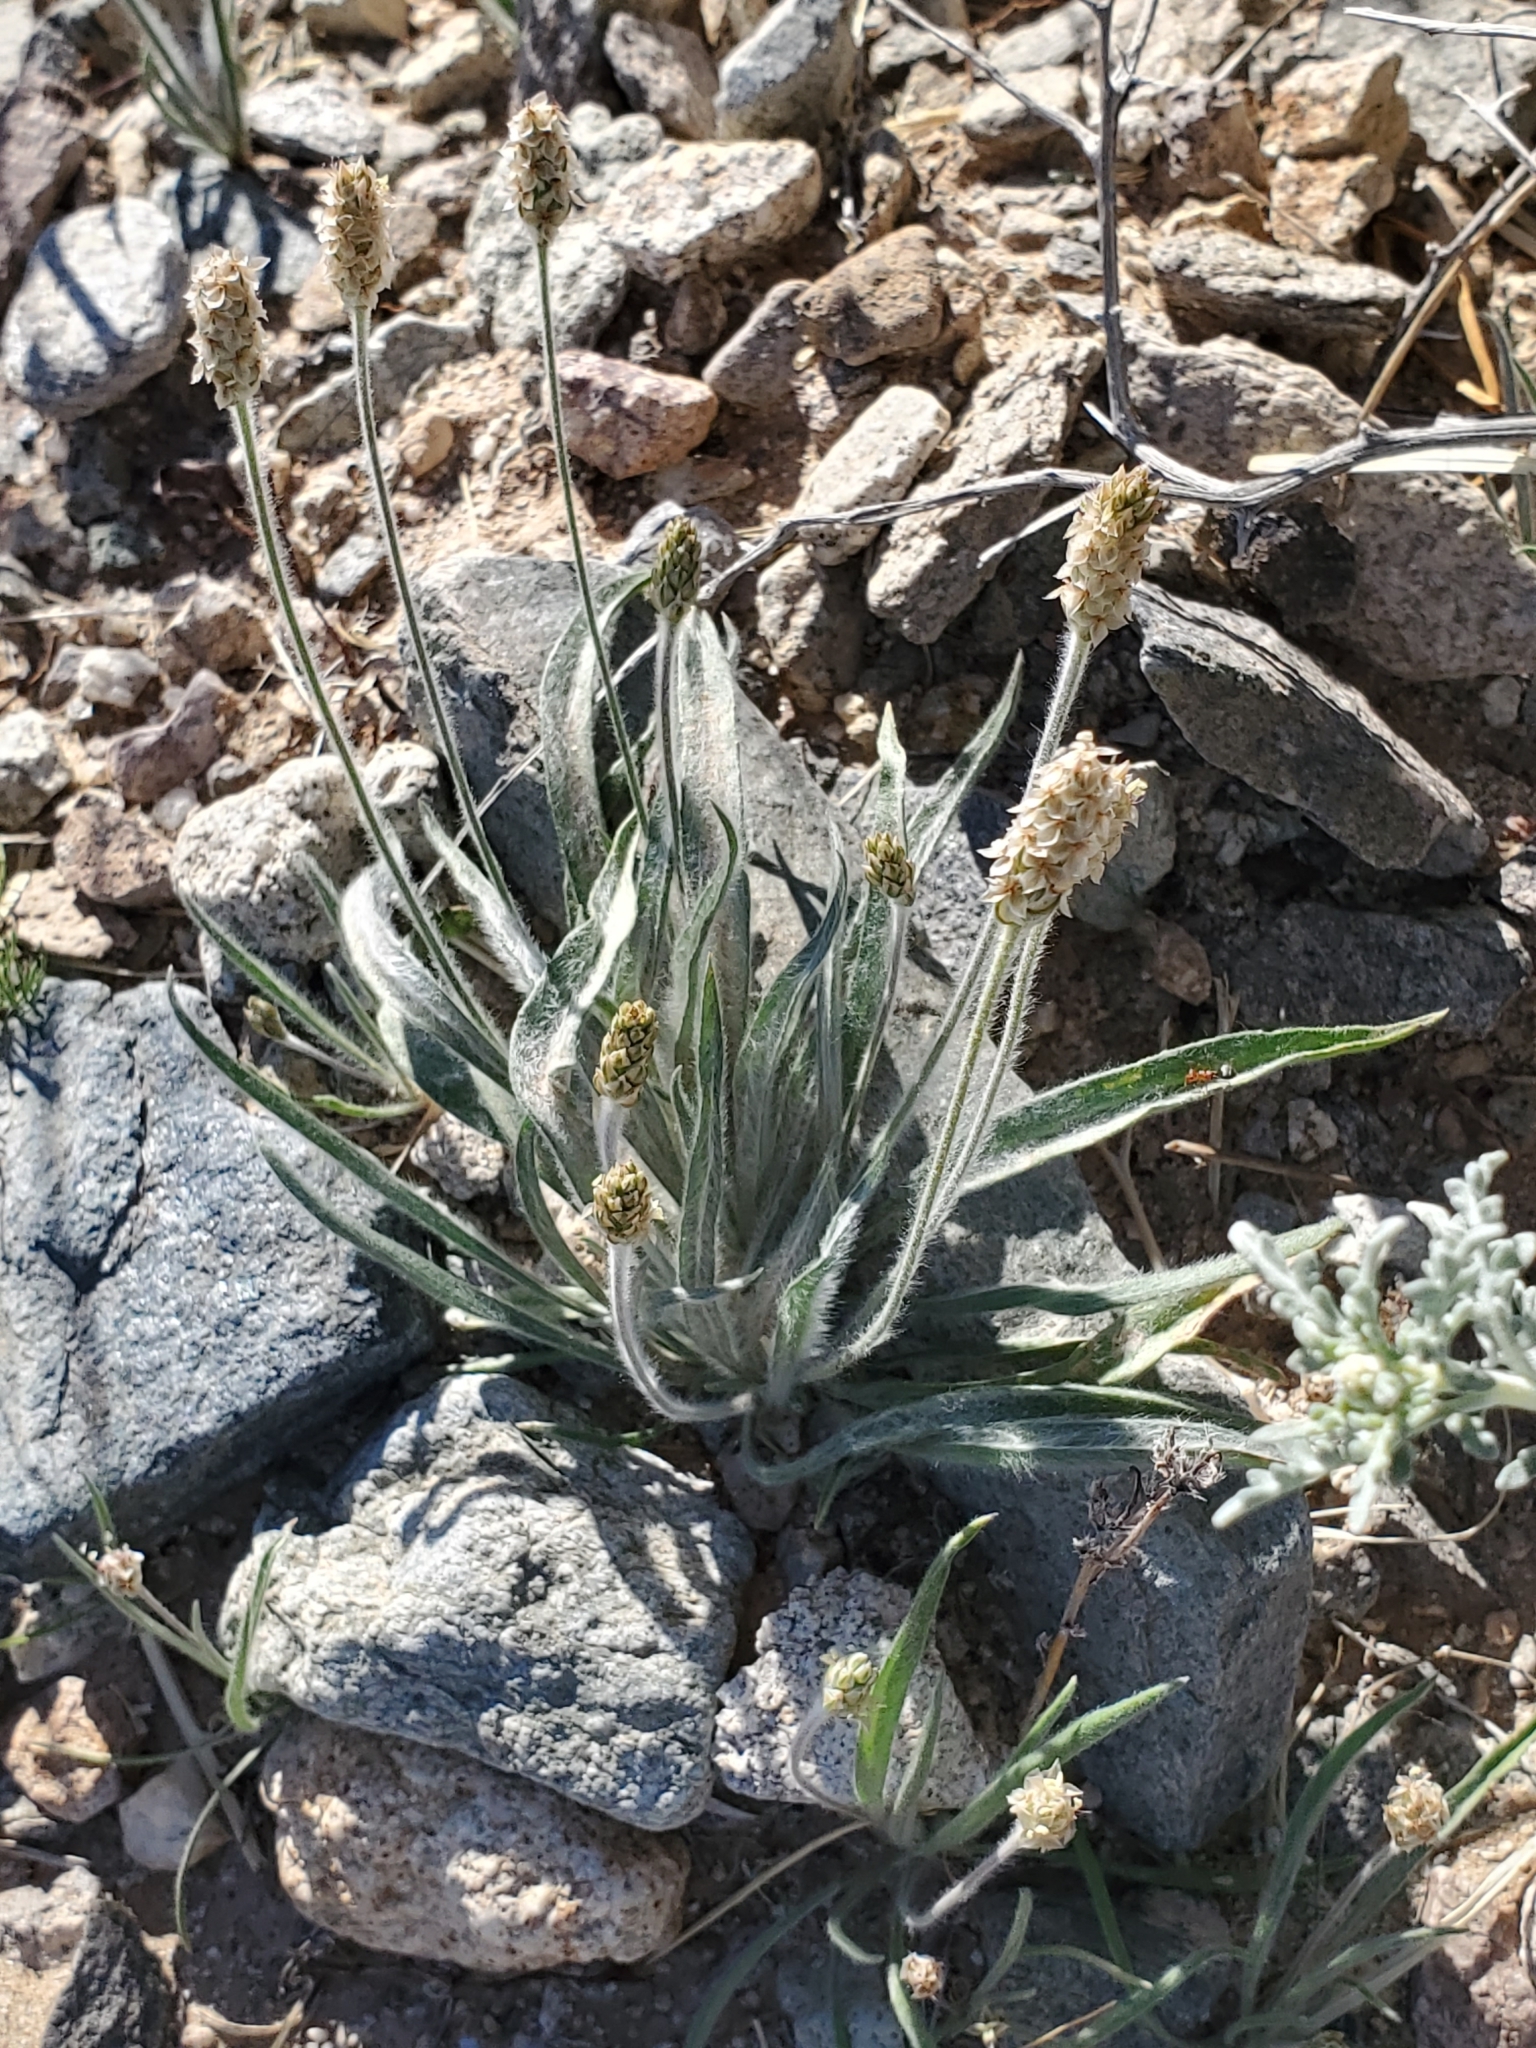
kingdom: Plantae
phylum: Tracheophyta
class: Magnoliopsida
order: Lamiales
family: Plantaginaceae
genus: Plantago
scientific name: Plantago ovata
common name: Blond plantain
